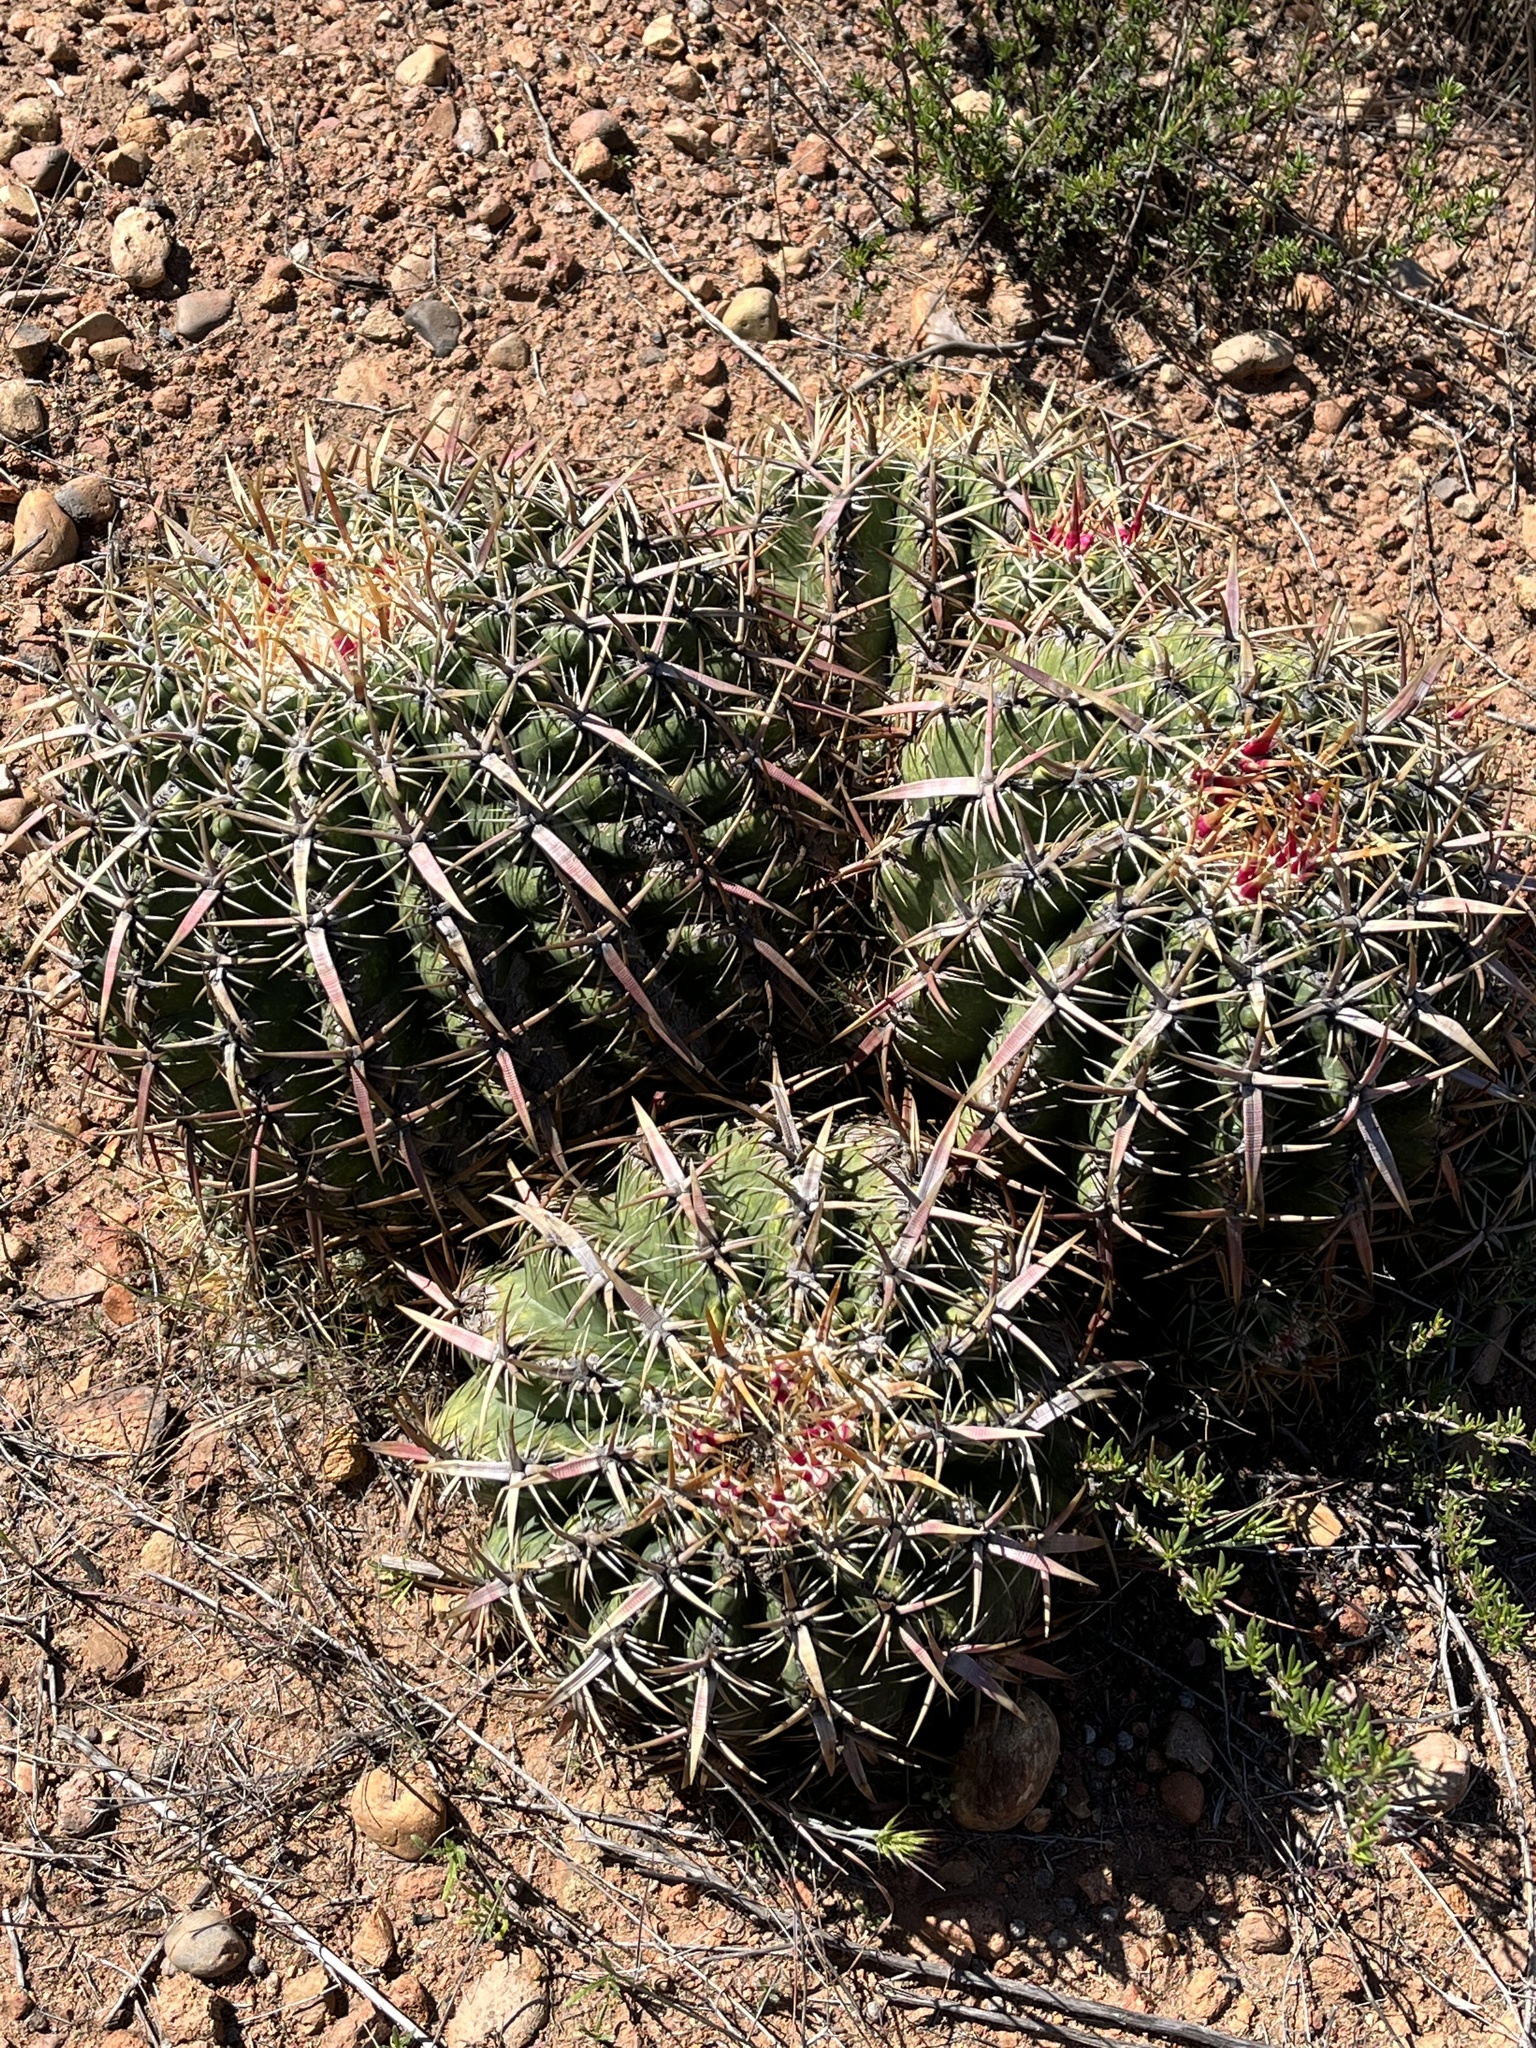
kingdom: Plantae
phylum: Tracheophyta
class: Magnoliopsida
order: Caryophyllales
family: Cactaceae
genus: Ferocactus
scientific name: Ferocactus viridescens
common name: San diego barrel cactus
